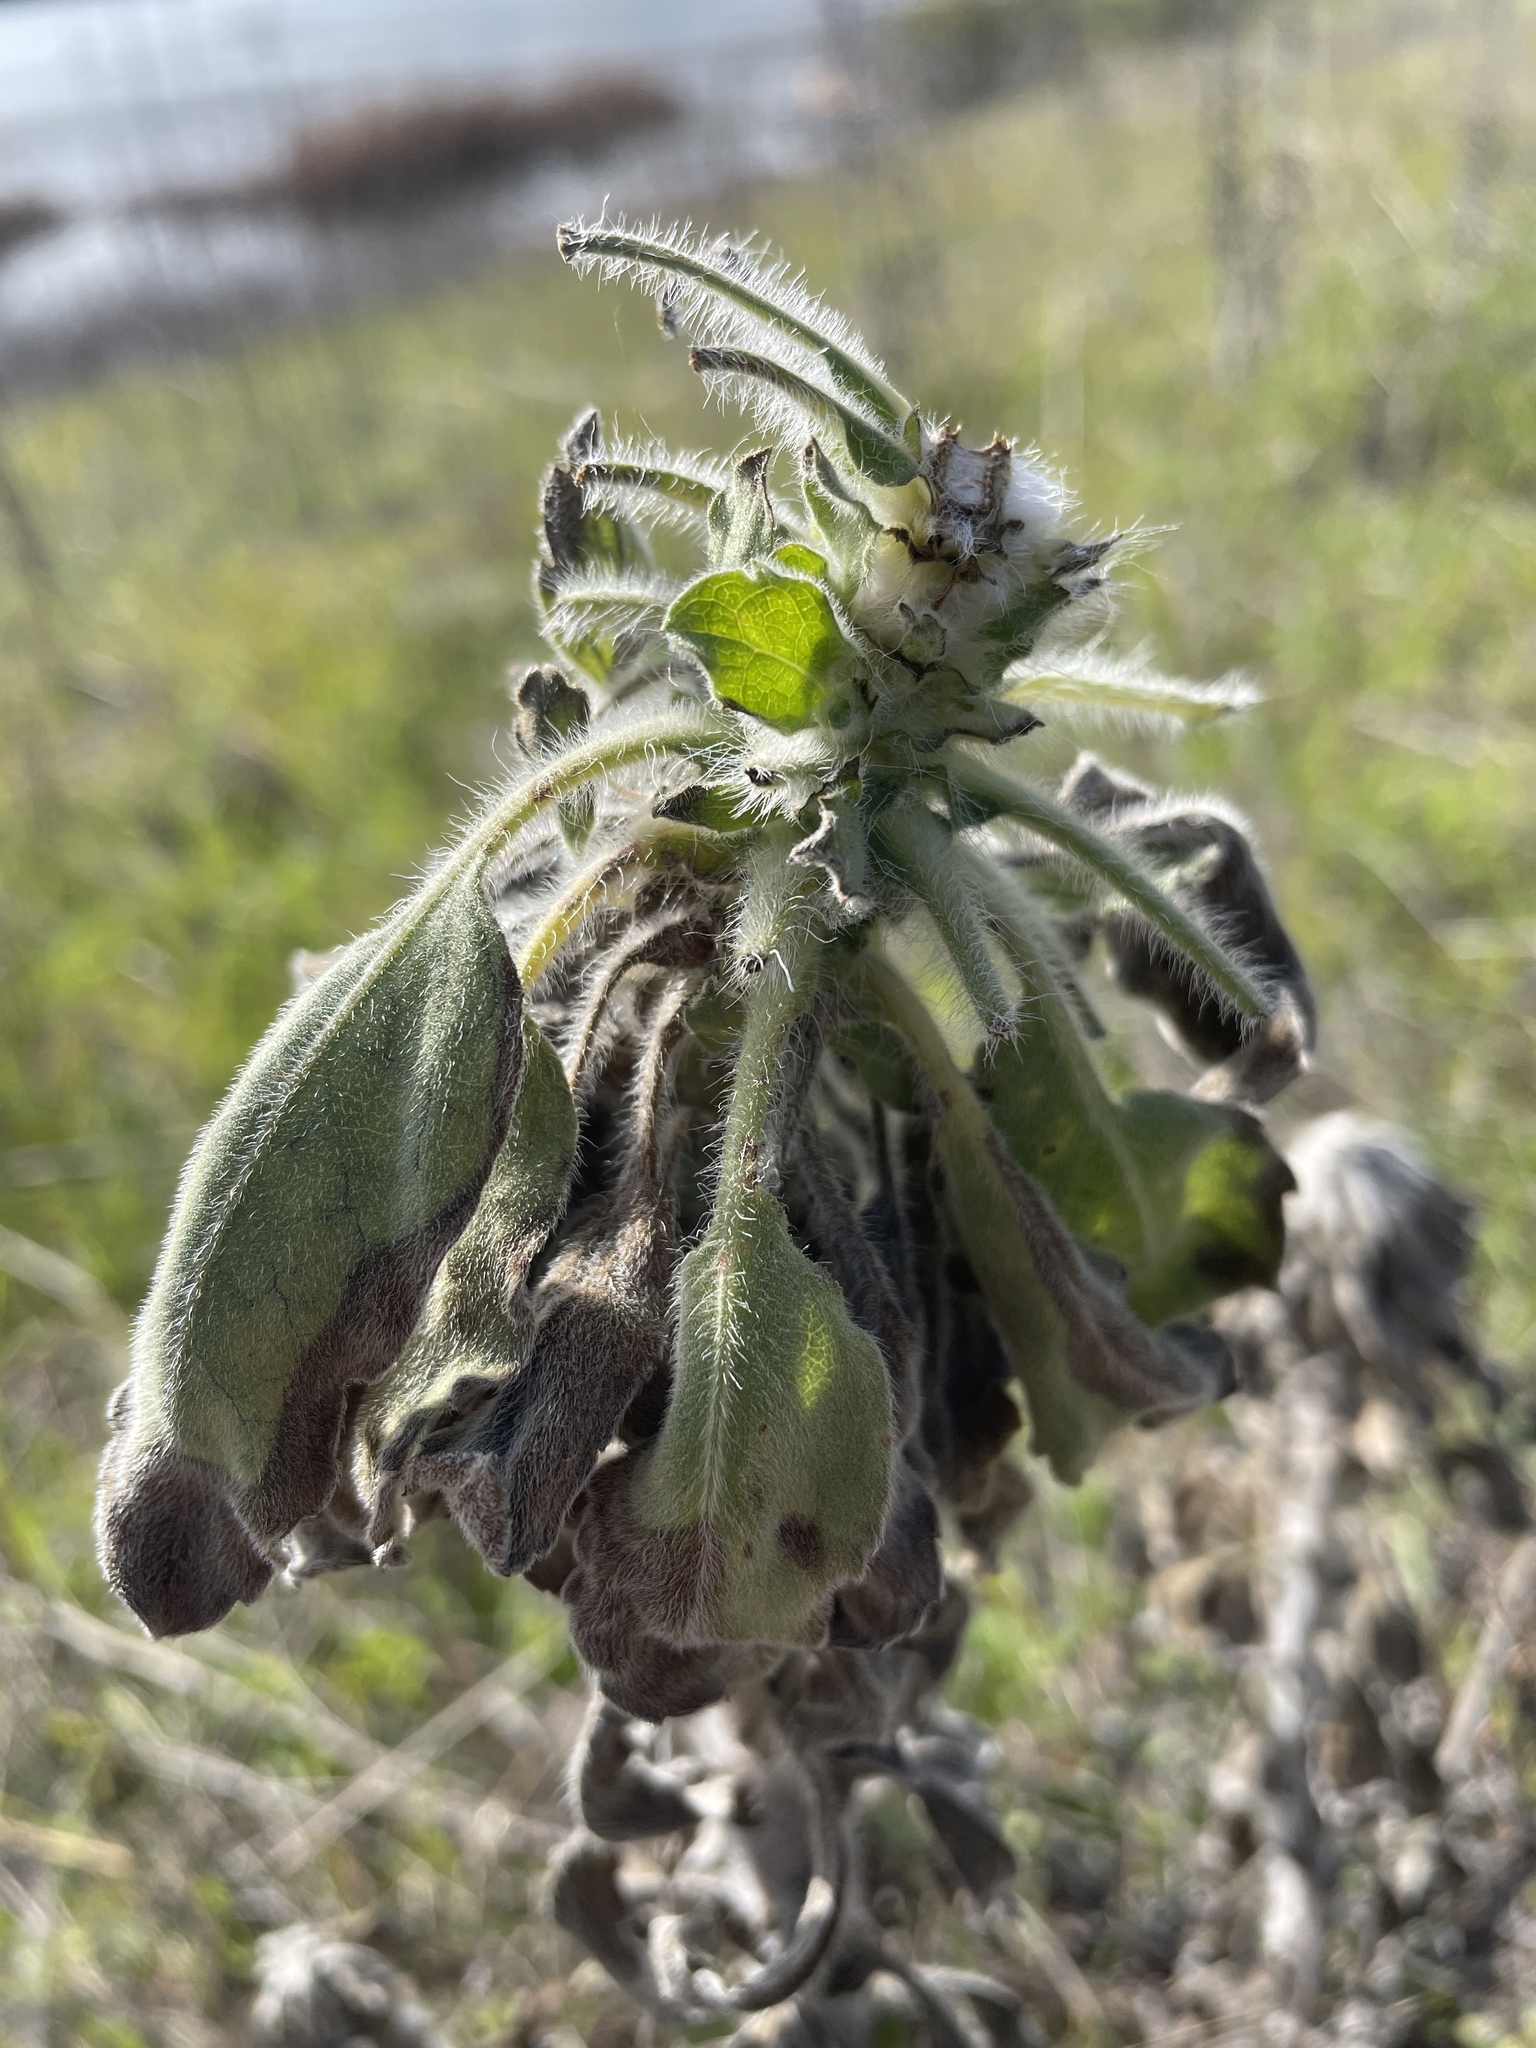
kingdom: Plantae
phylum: Tracheophyta
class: Magnoliopsida
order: Asterales
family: Asteraceae
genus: Heterotheca
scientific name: Heterotheca grandiflora
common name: Telegraphweed
